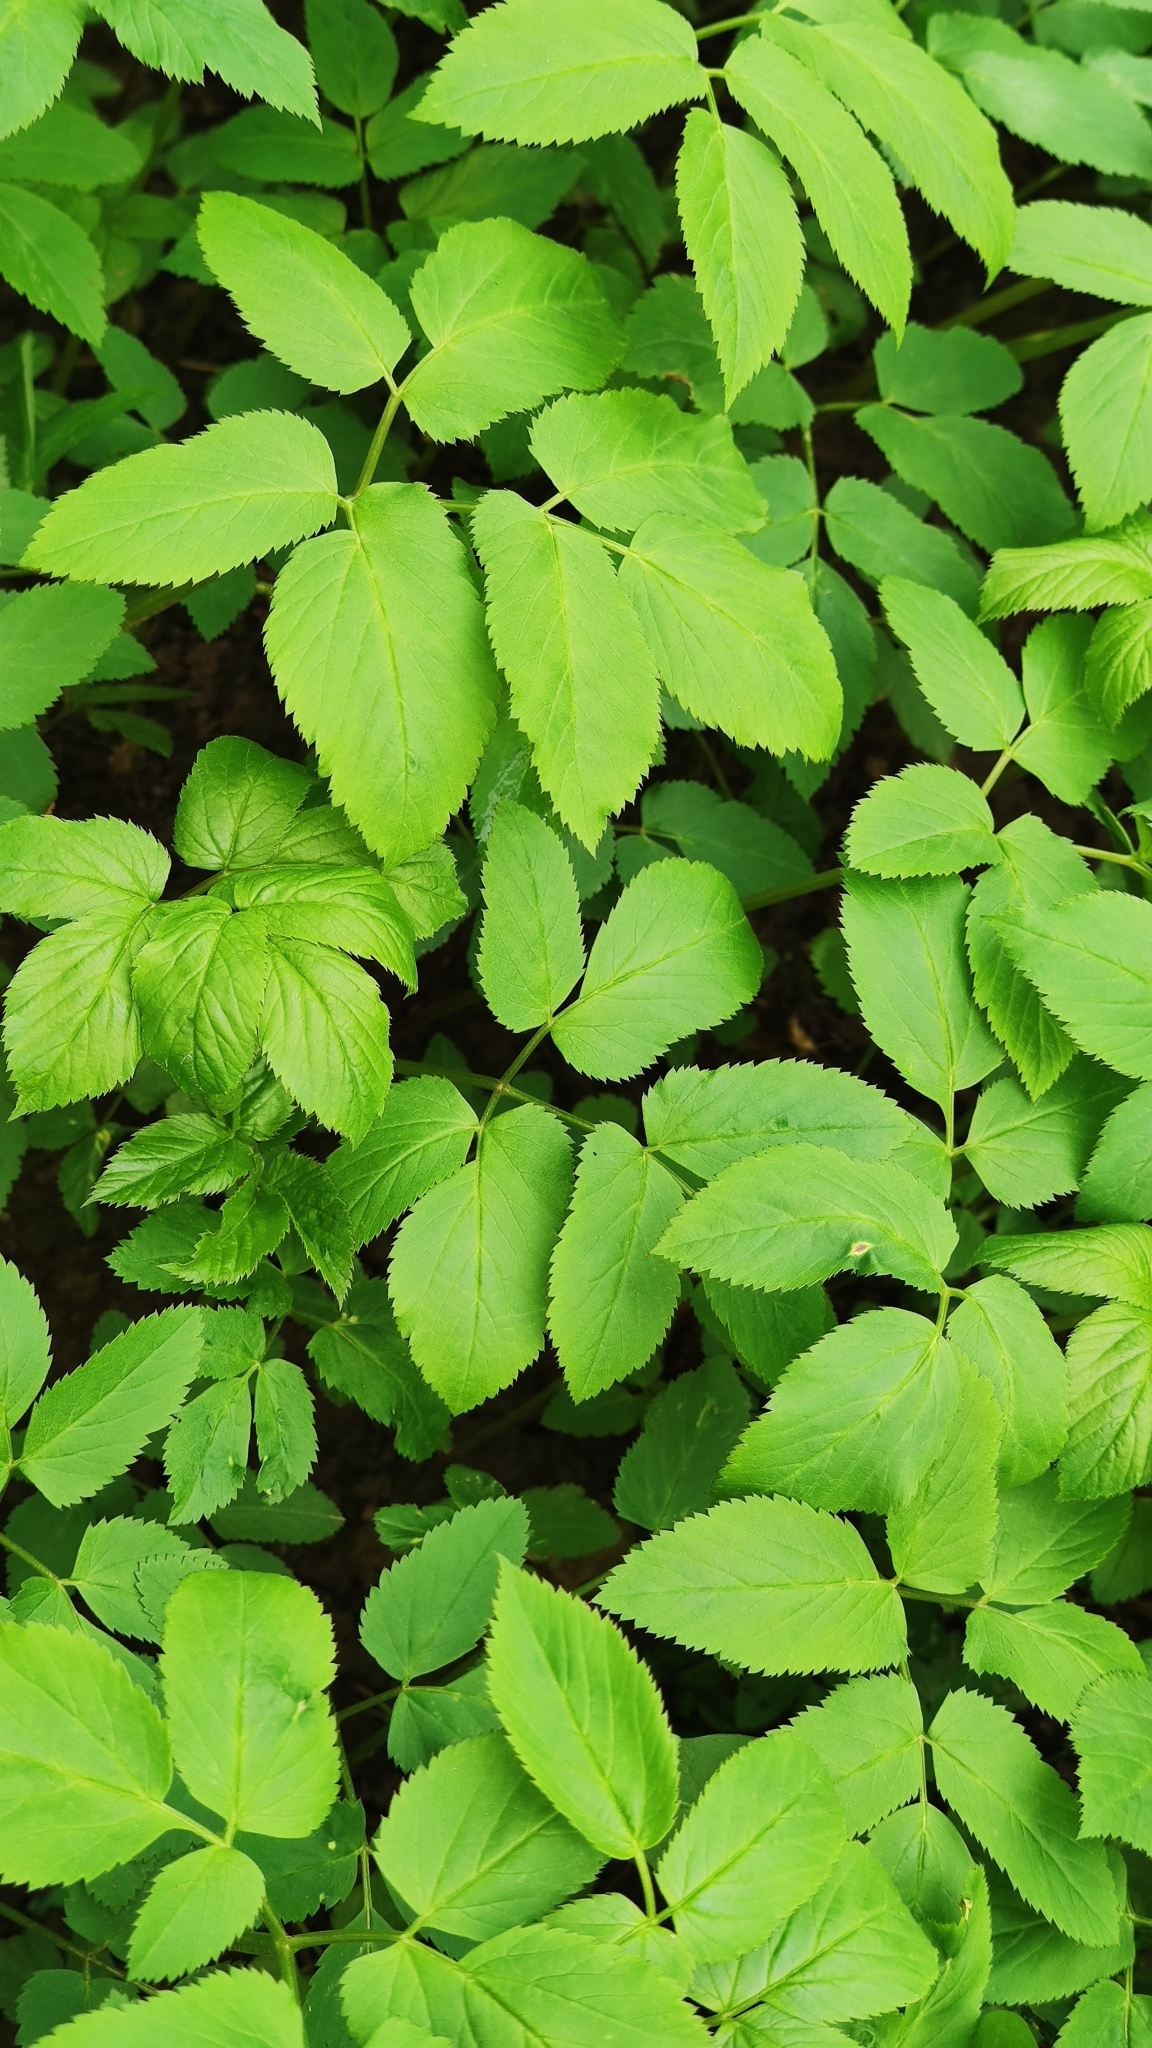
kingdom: Plantae
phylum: Tracheophyta
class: Magnoliopsida
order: Apiales
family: Apiaceae
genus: Aegopodium
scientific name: Aegopodium podagraria
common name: Ground-elder
